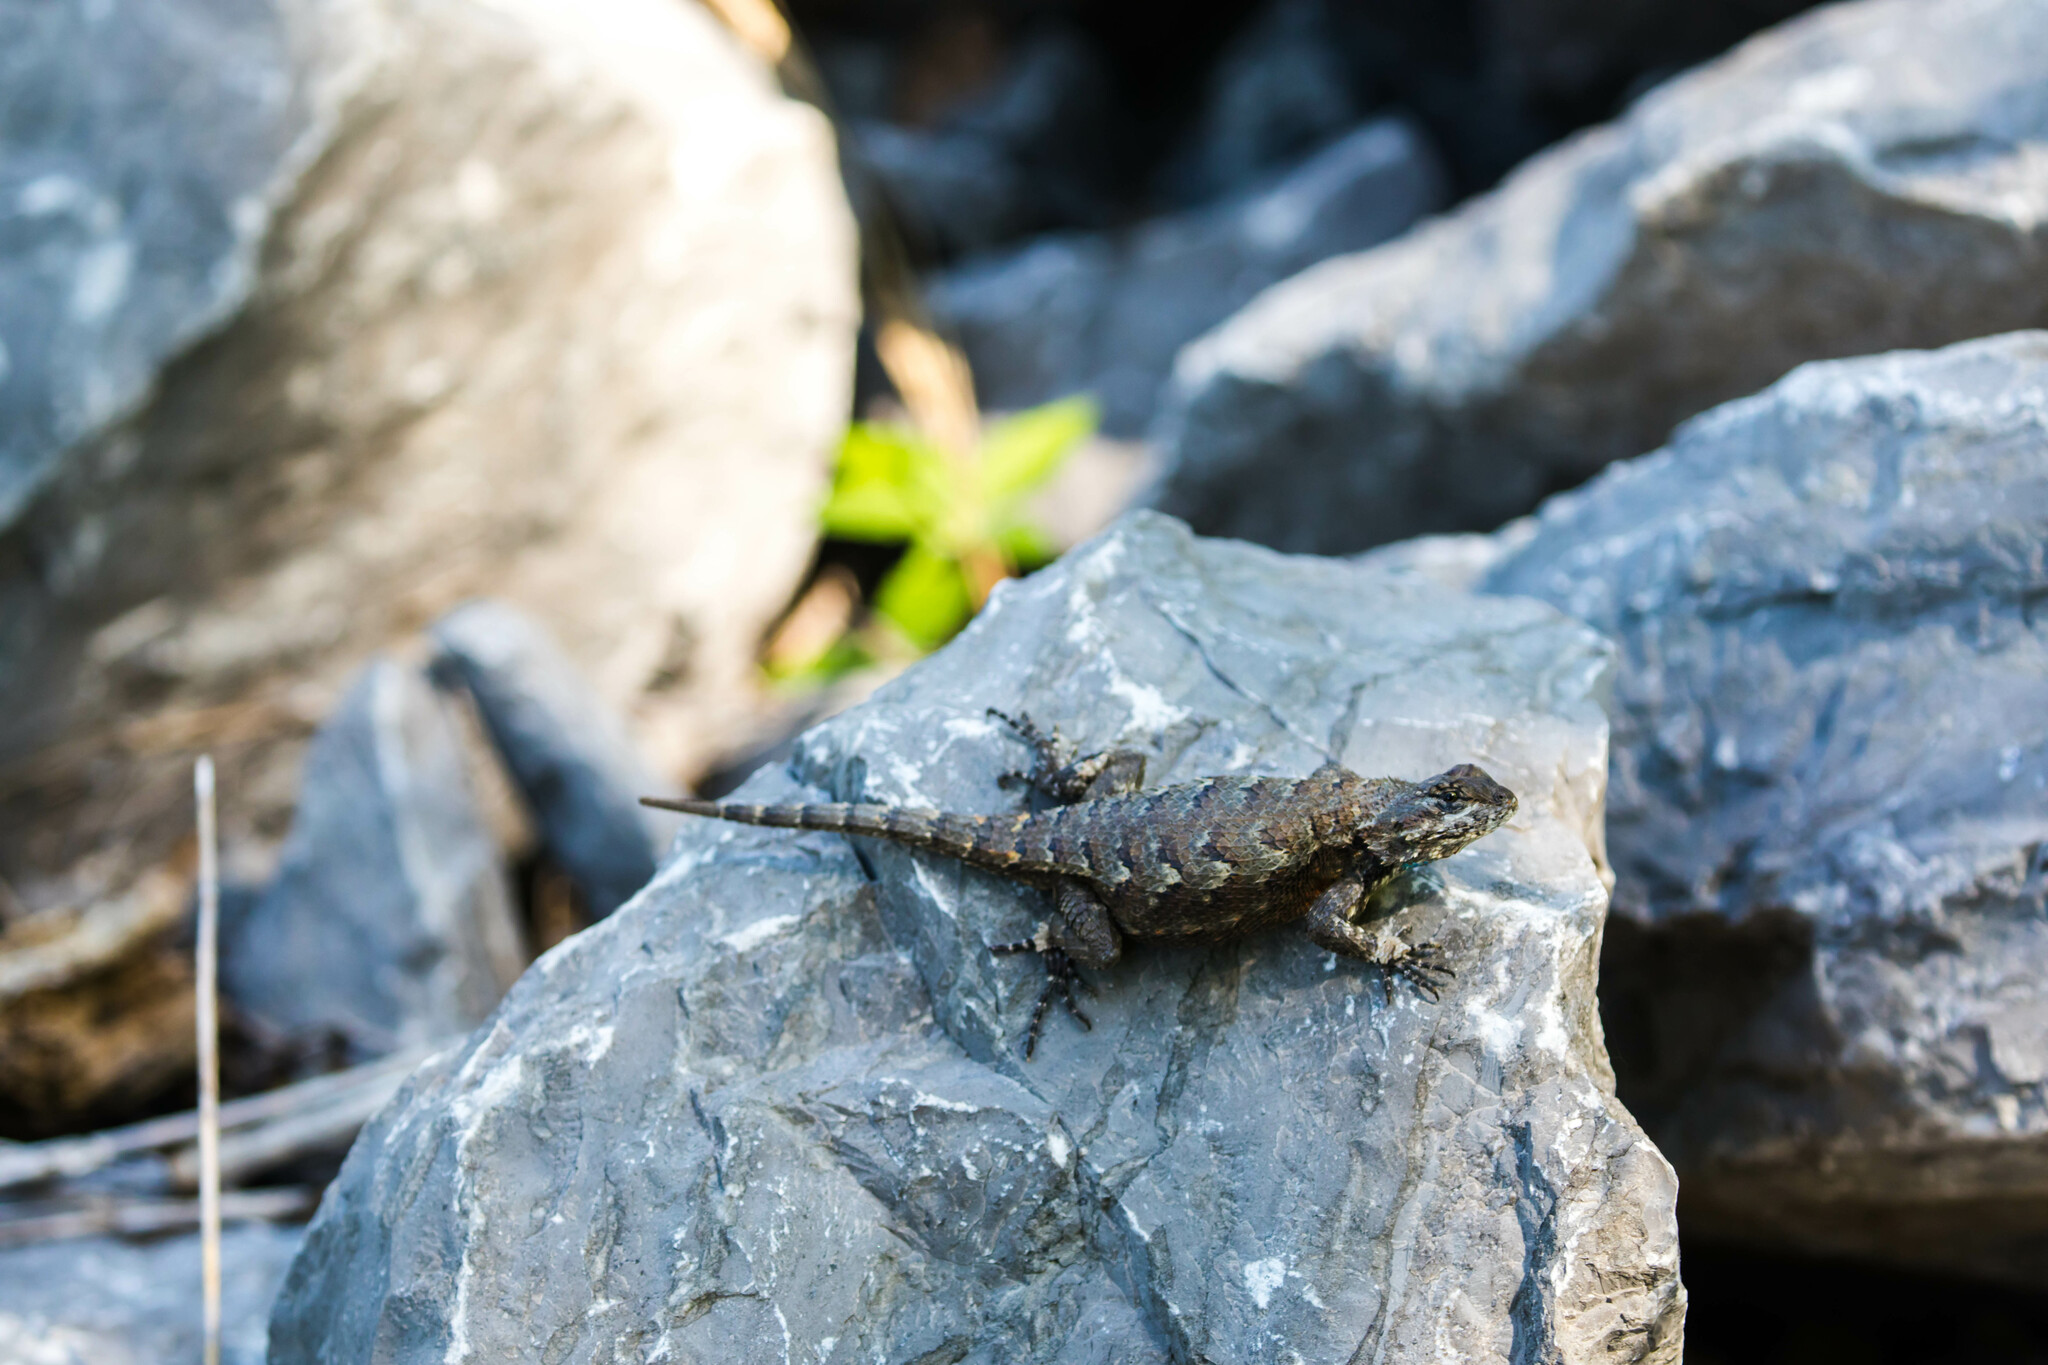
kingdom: Animalia
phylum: Chordata
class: Squamata
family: Phrynosomatidae
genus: Sceloporus
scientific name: Sceloporus undulatus
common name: Eastern fence lizard
